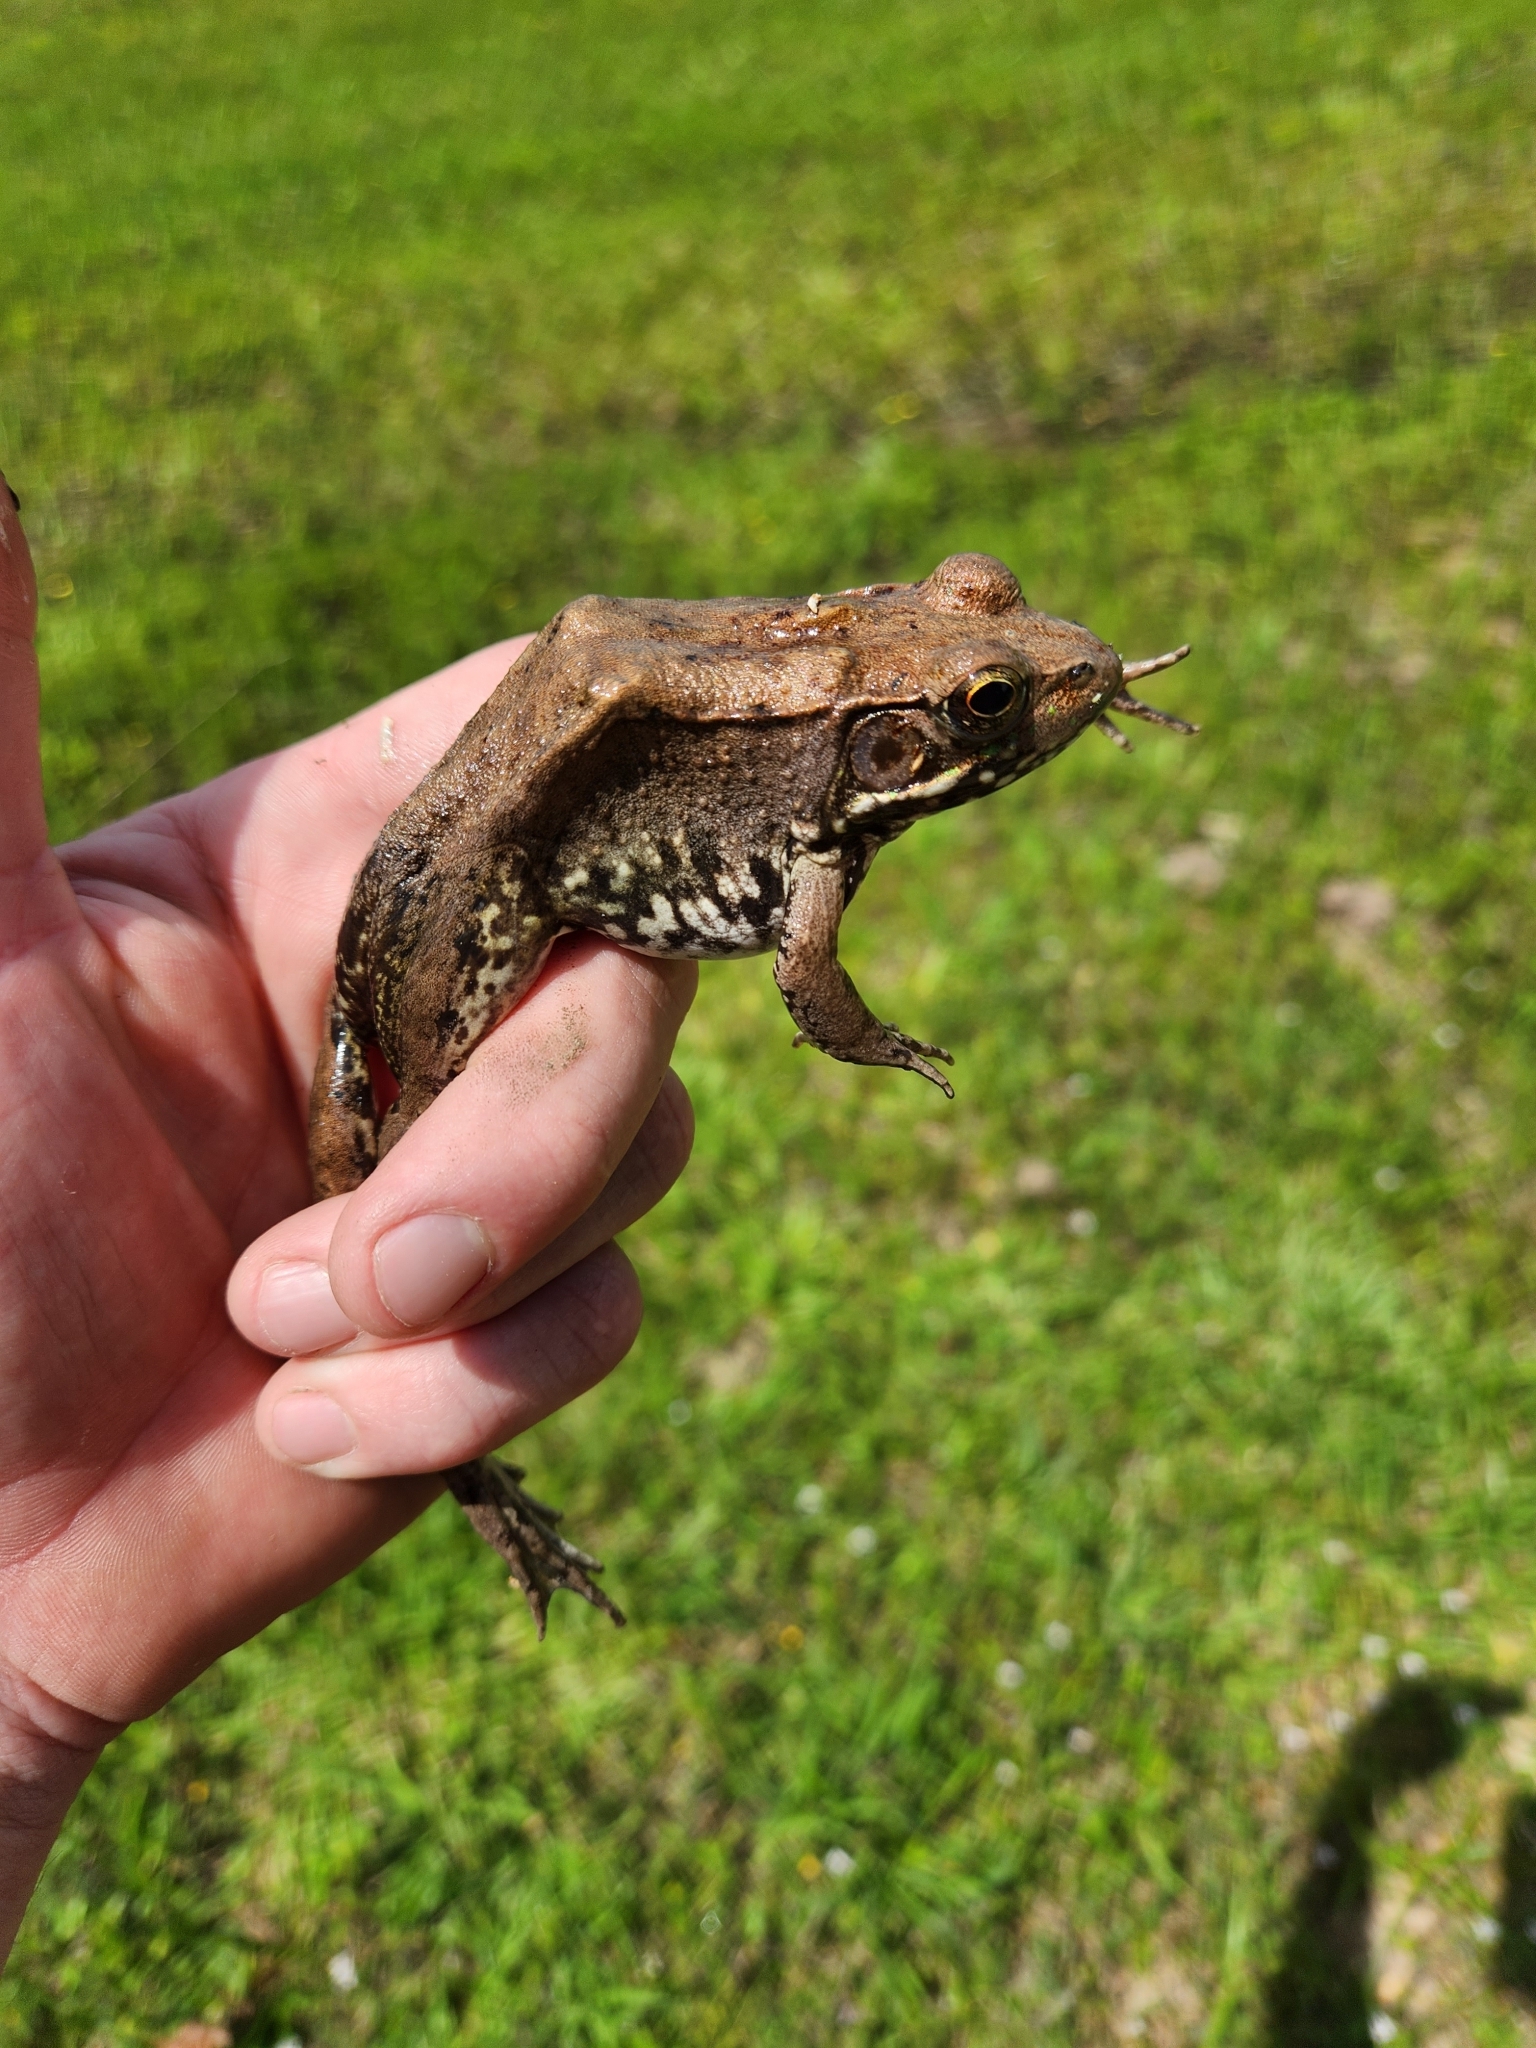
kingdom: Animalia
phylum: Chordata
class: Amphibia
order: Anura
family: Ranidae
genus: Lithobates
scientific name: Lithobates clamitans
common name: Green frog
